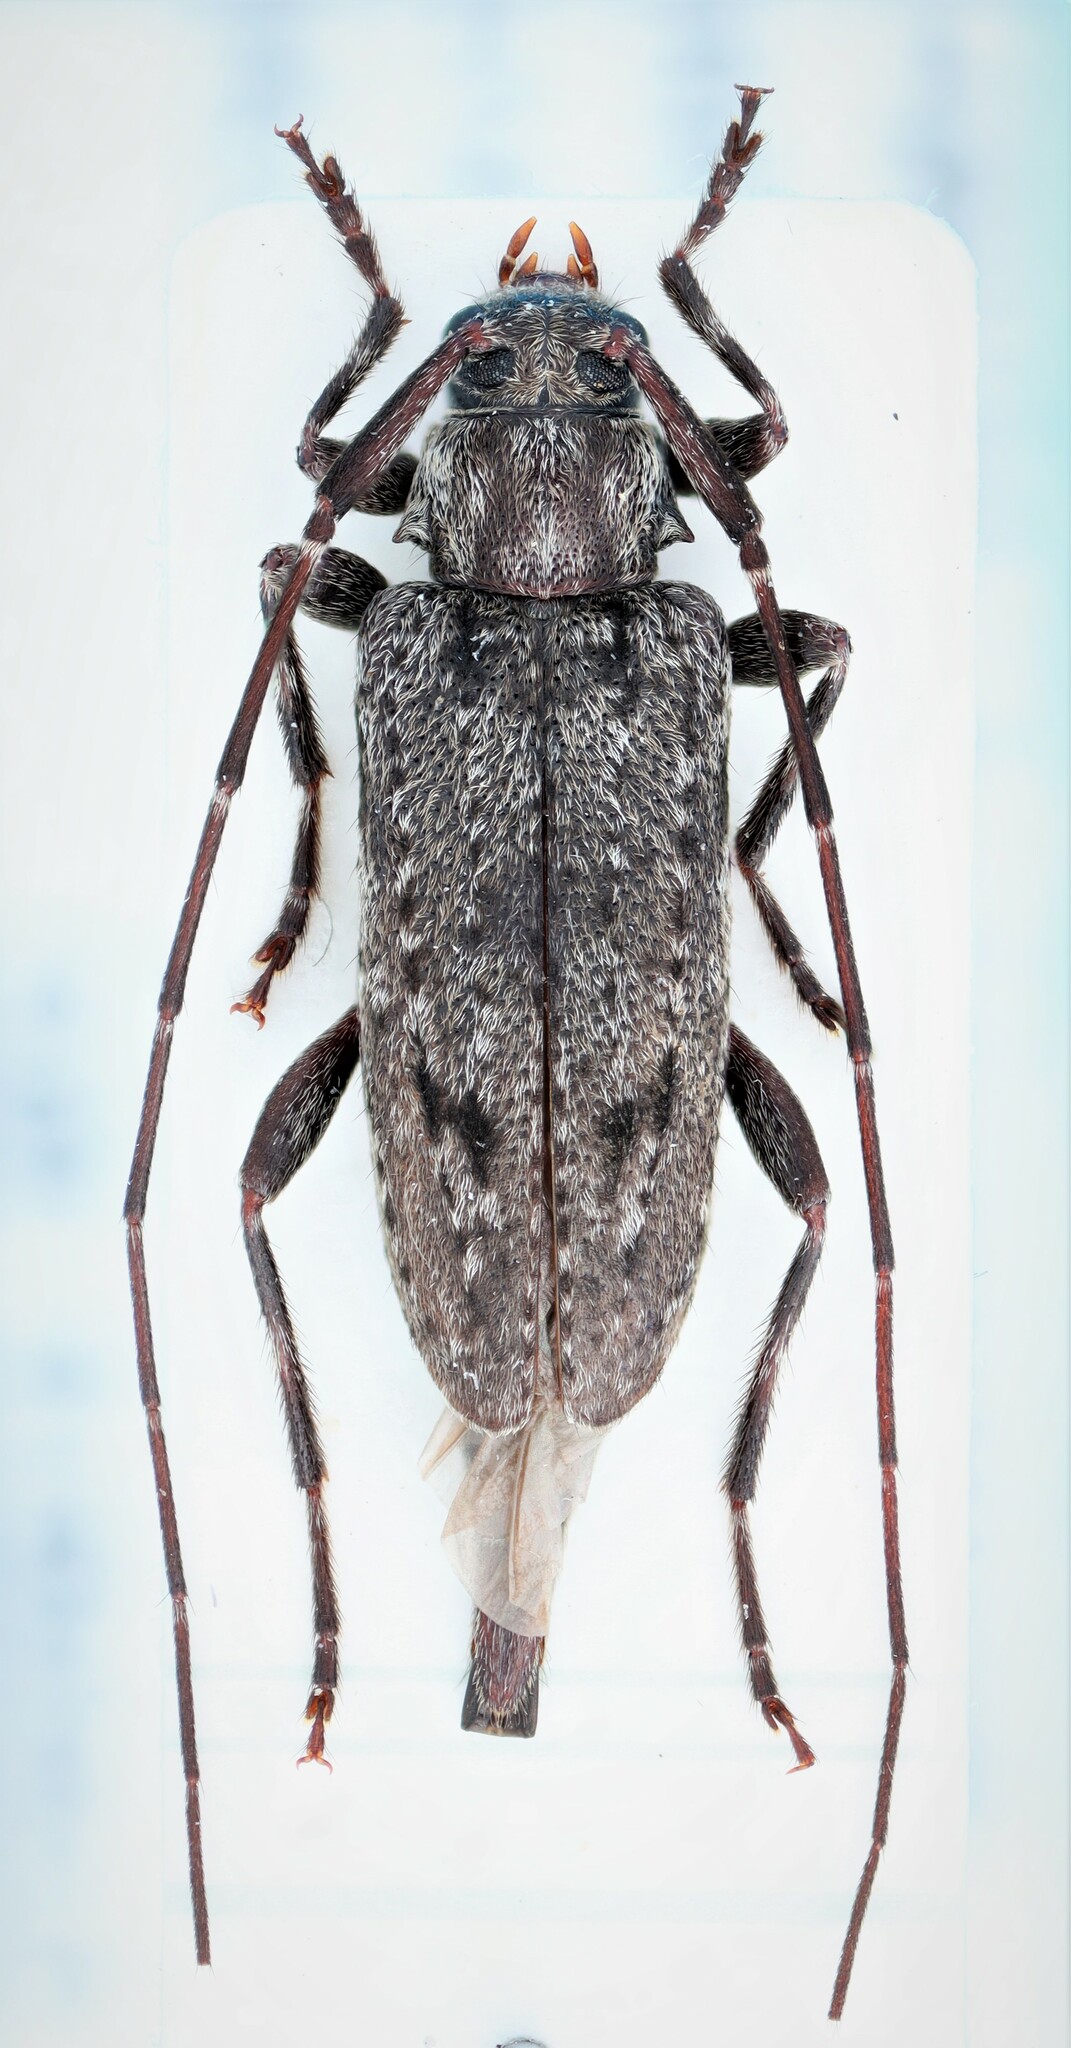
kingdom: Animalia
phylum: Arthropoda
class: Insecta
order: Coleoptera
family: Cerambycidae
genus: Eutrichillus
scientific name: Eutrichillus biguttatus
